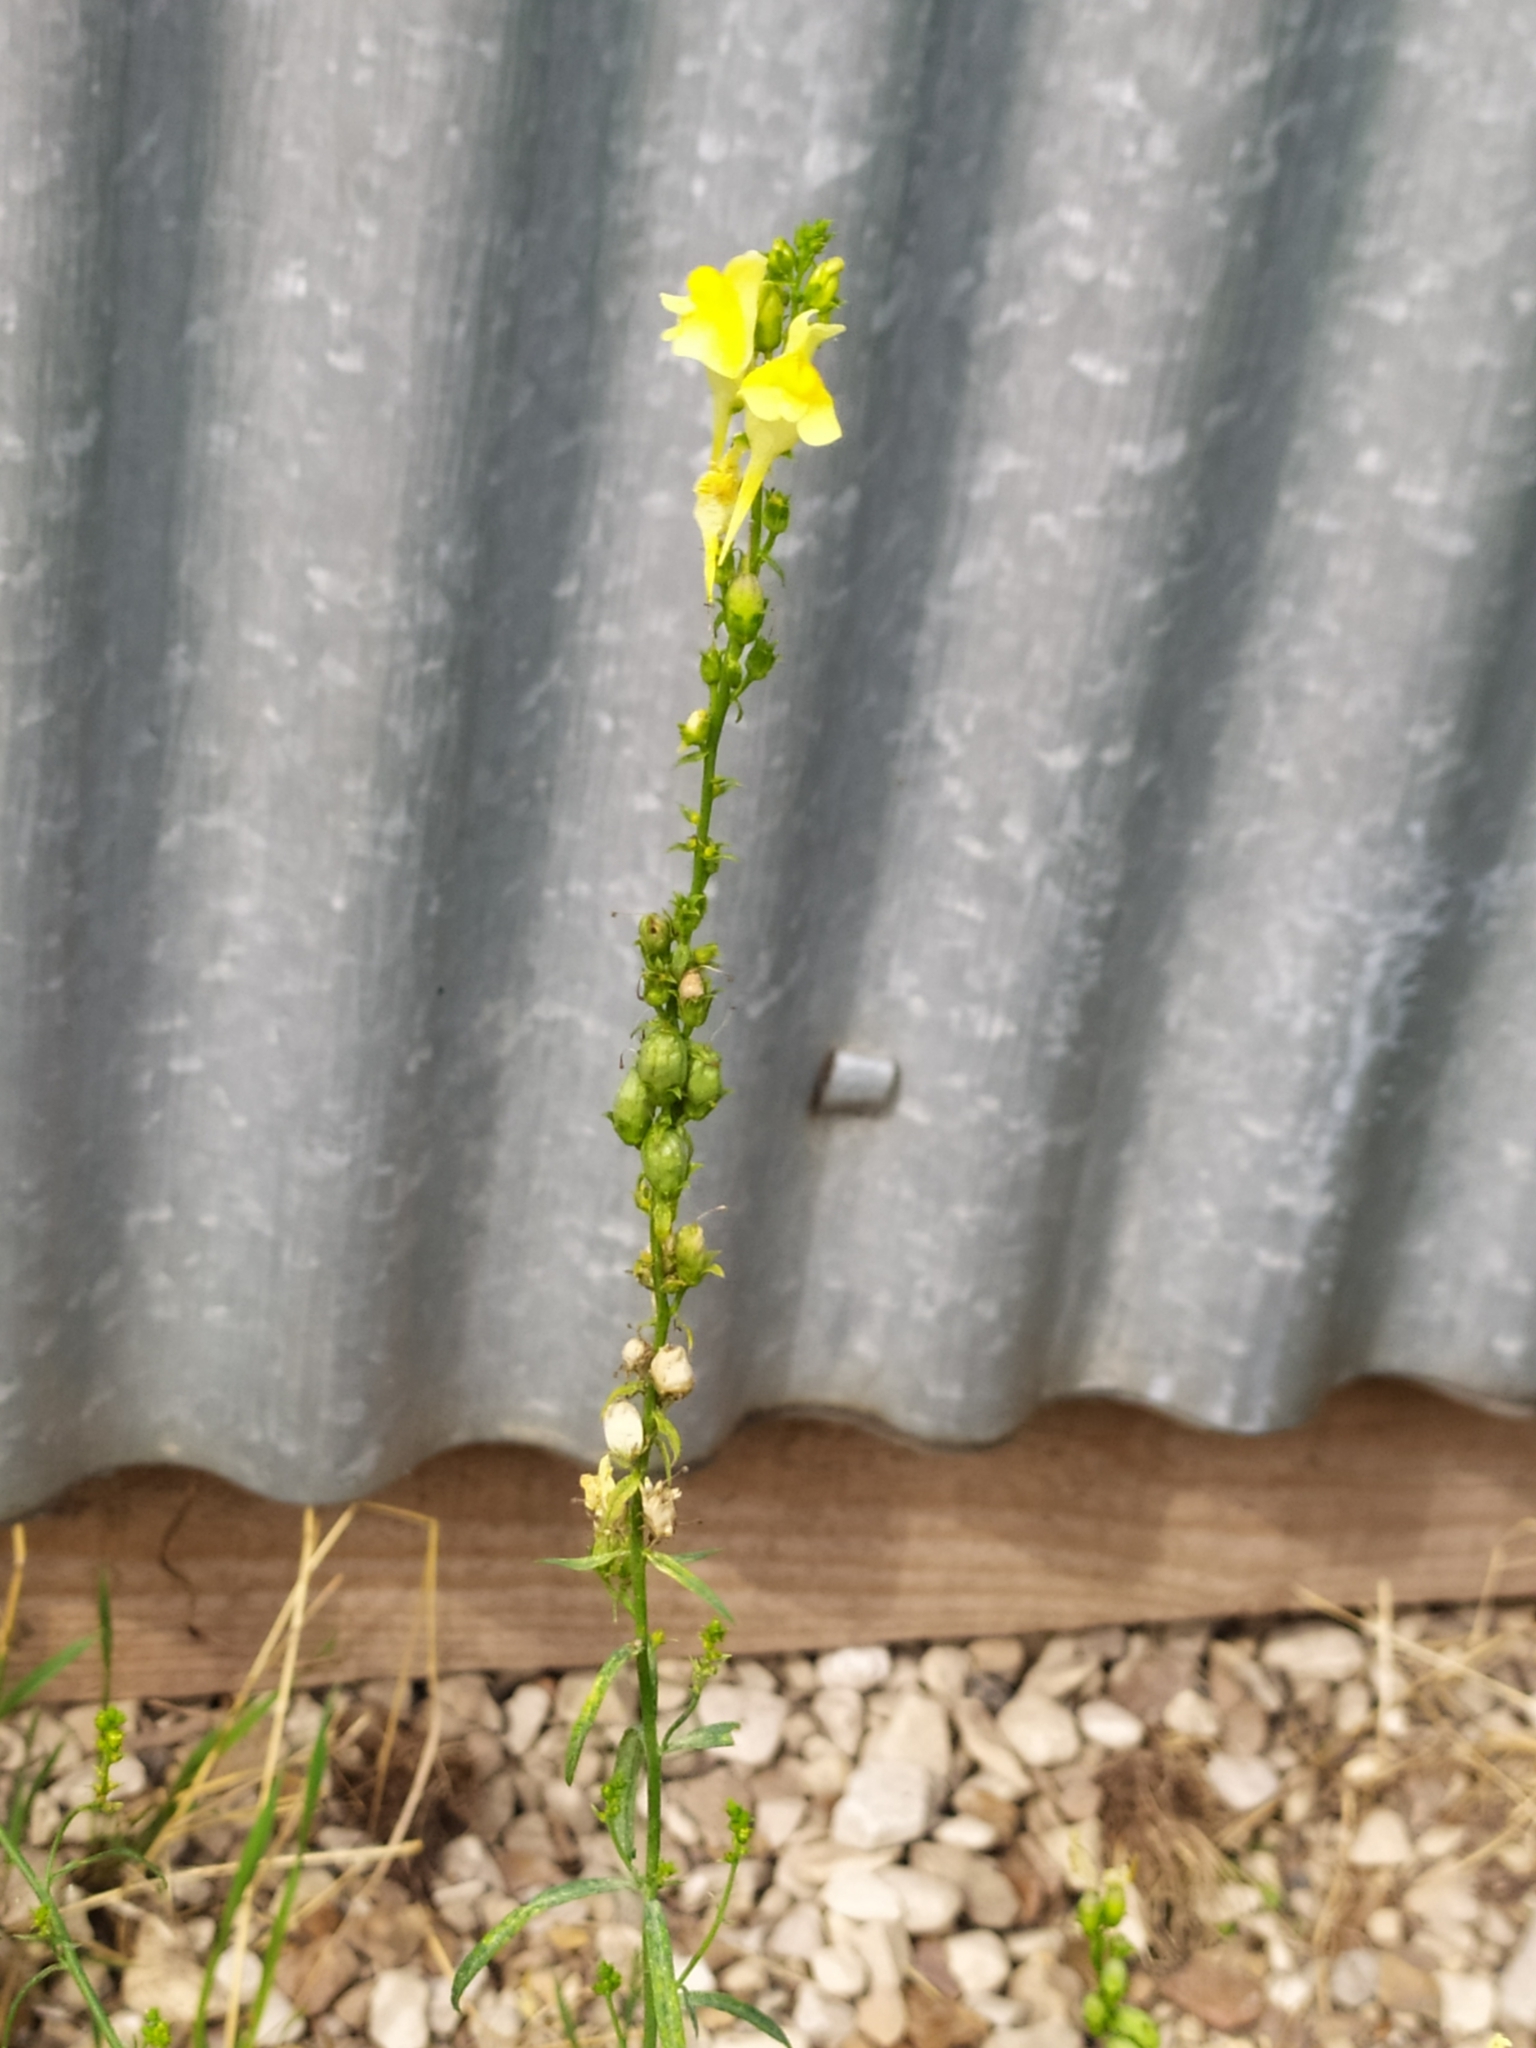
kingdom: Plantae
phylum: Tracheophyta
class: Magnoliopsida
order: Lamiales
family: Plantaginaceae
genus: Linaria
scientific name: Linaria vulgaris
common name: Butter and eggs
